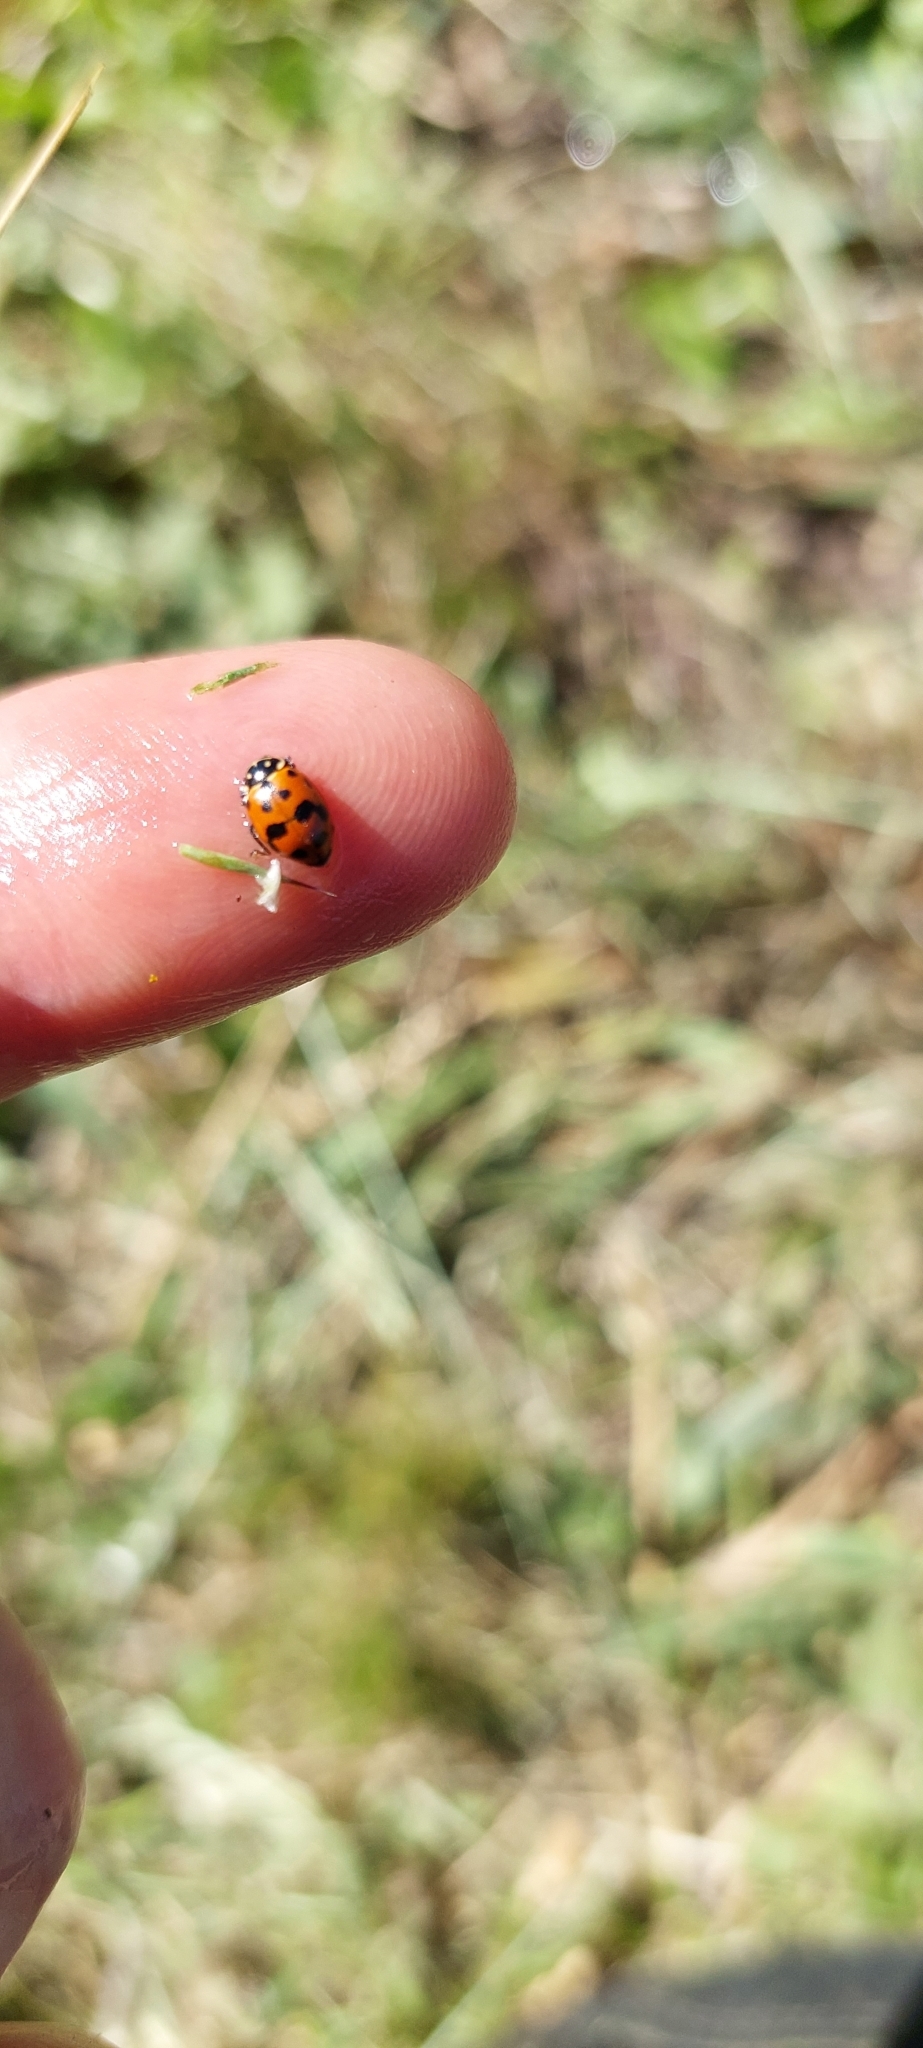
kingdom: Animalia
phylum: Arthropoda
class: Insecta
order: Coleoptera
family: Coccinellidae
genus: Hippodamia
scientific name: Hippodamia variegata
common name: Ladybird beetle
